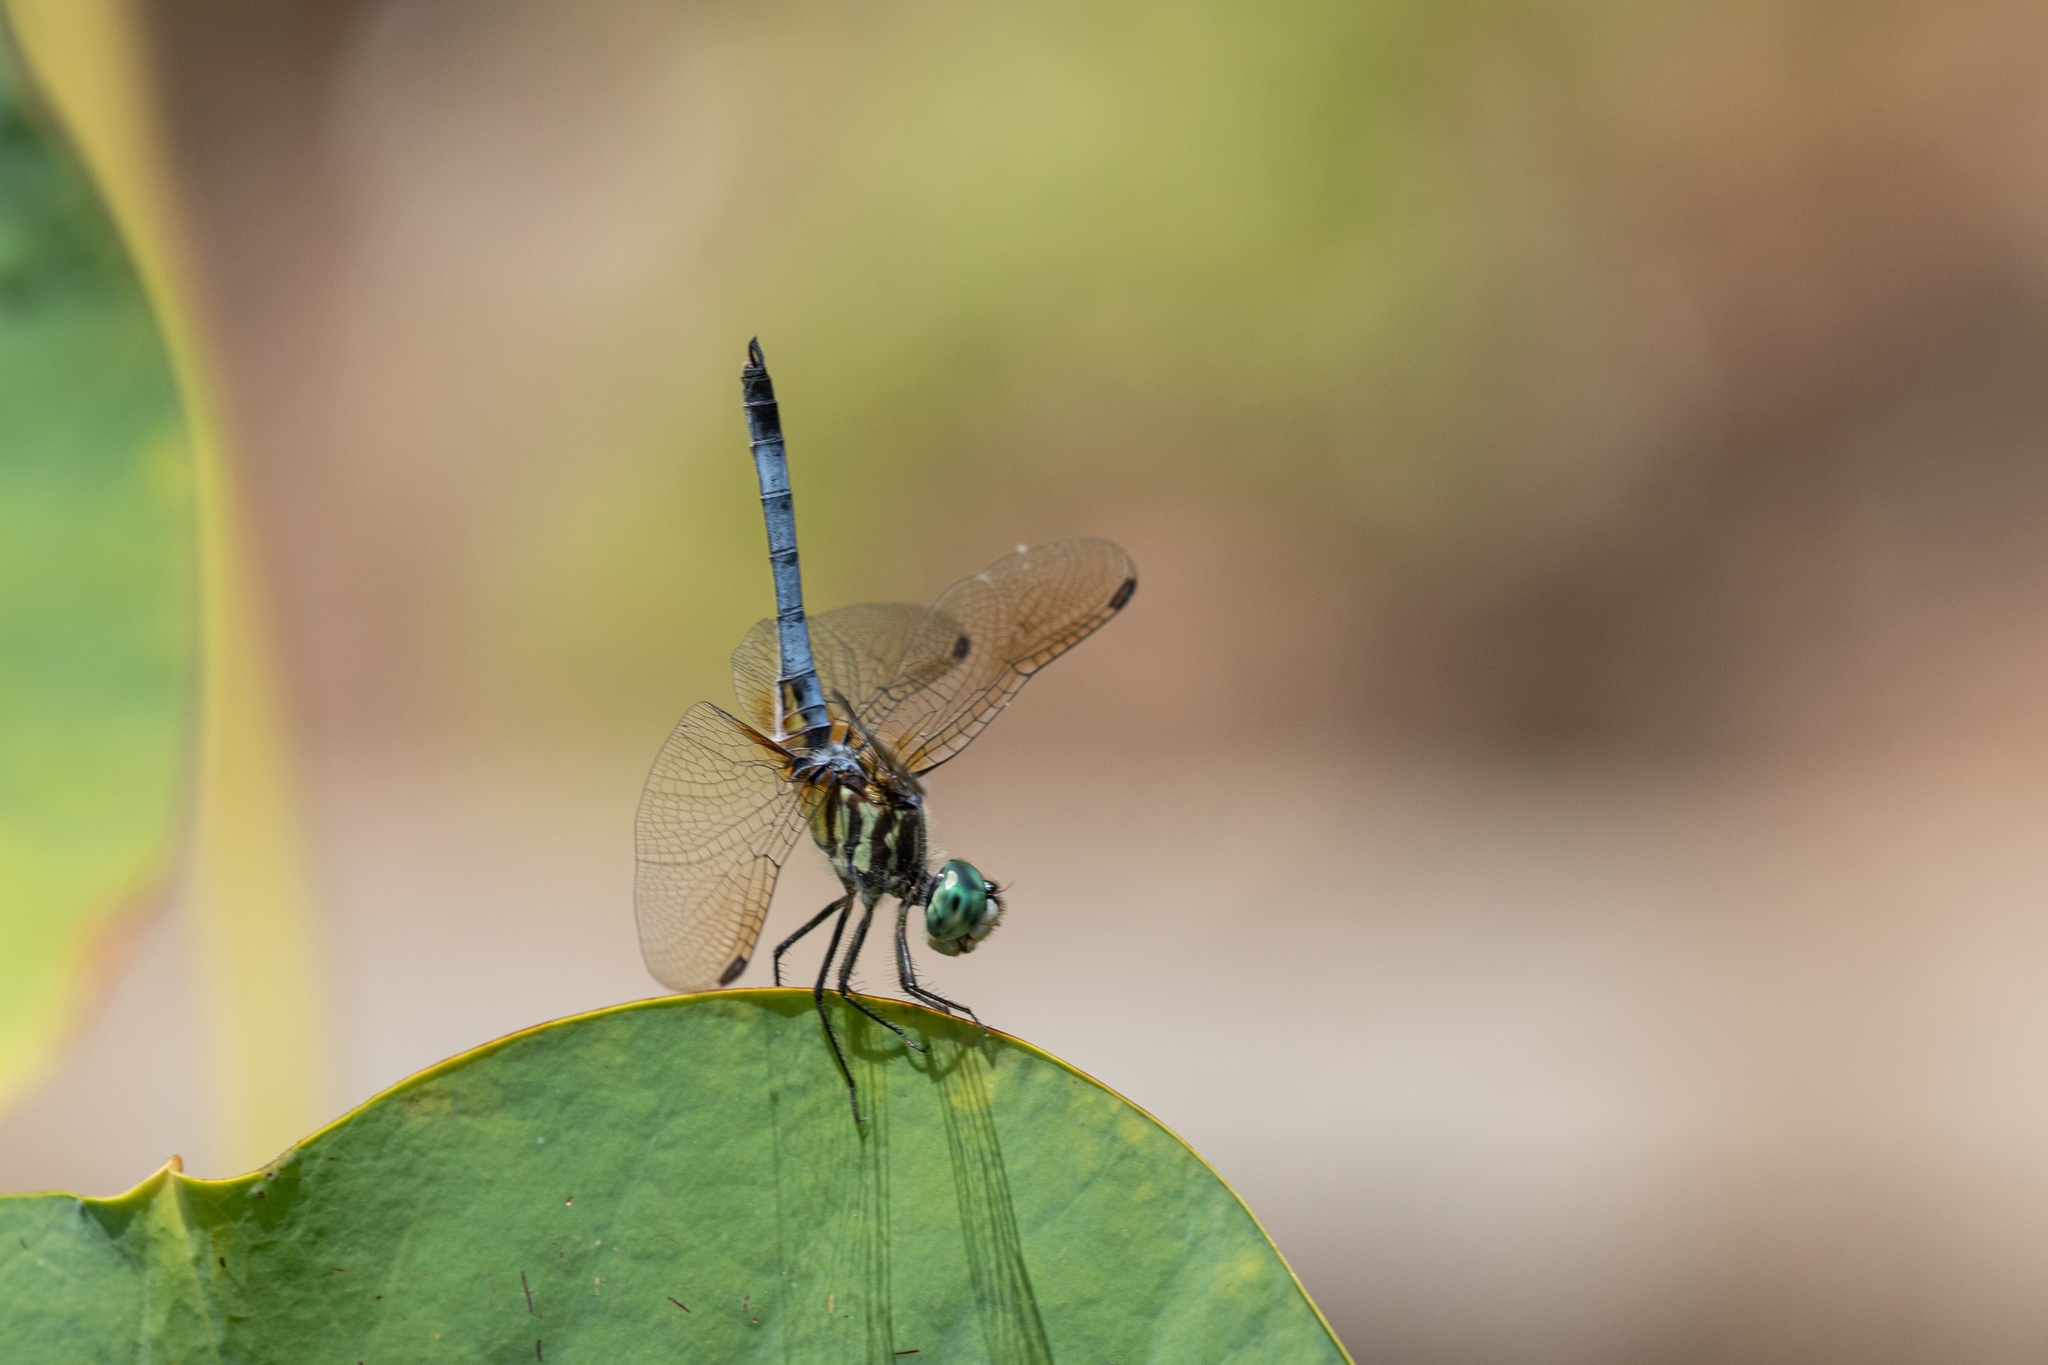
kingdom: Animalia
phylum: Arthropoda
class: Insecta
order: Odonata
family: Libellulidae
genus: Pachydiplax
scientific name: Pachydiplax longipennis
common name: Blue dasher
